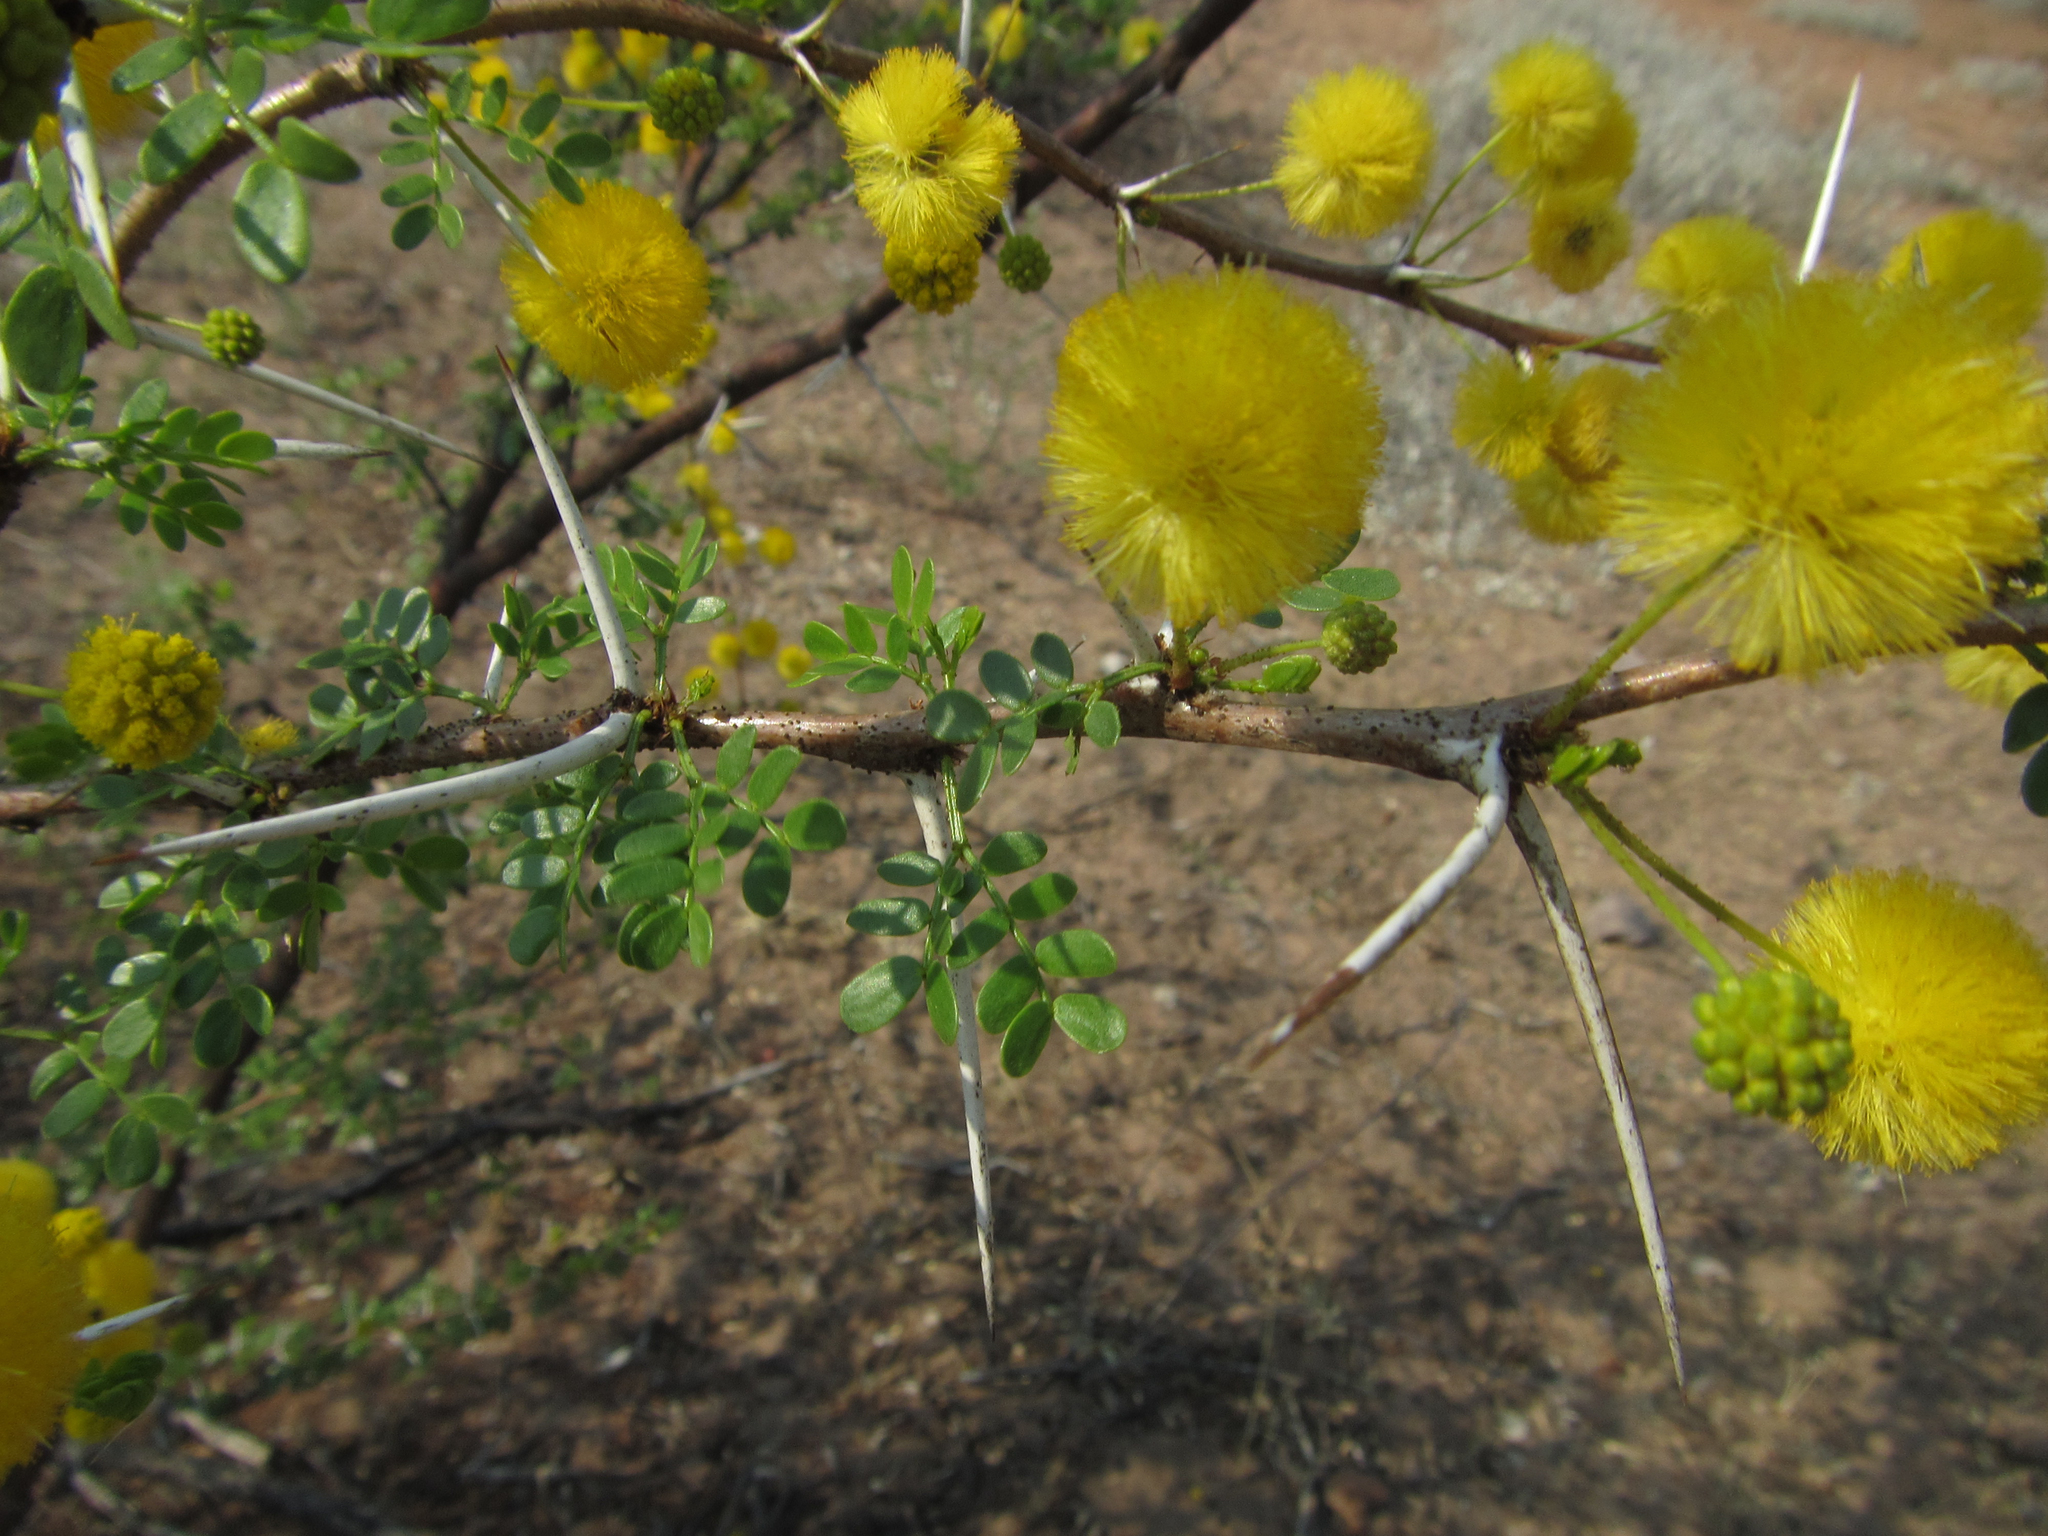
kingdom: Plantae
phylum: Tracheophyta
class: Magnoliopsida
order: Fabales
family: Fabaceae
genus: Vachellia
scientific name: Vachellia nebrownii
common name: Water acacia
